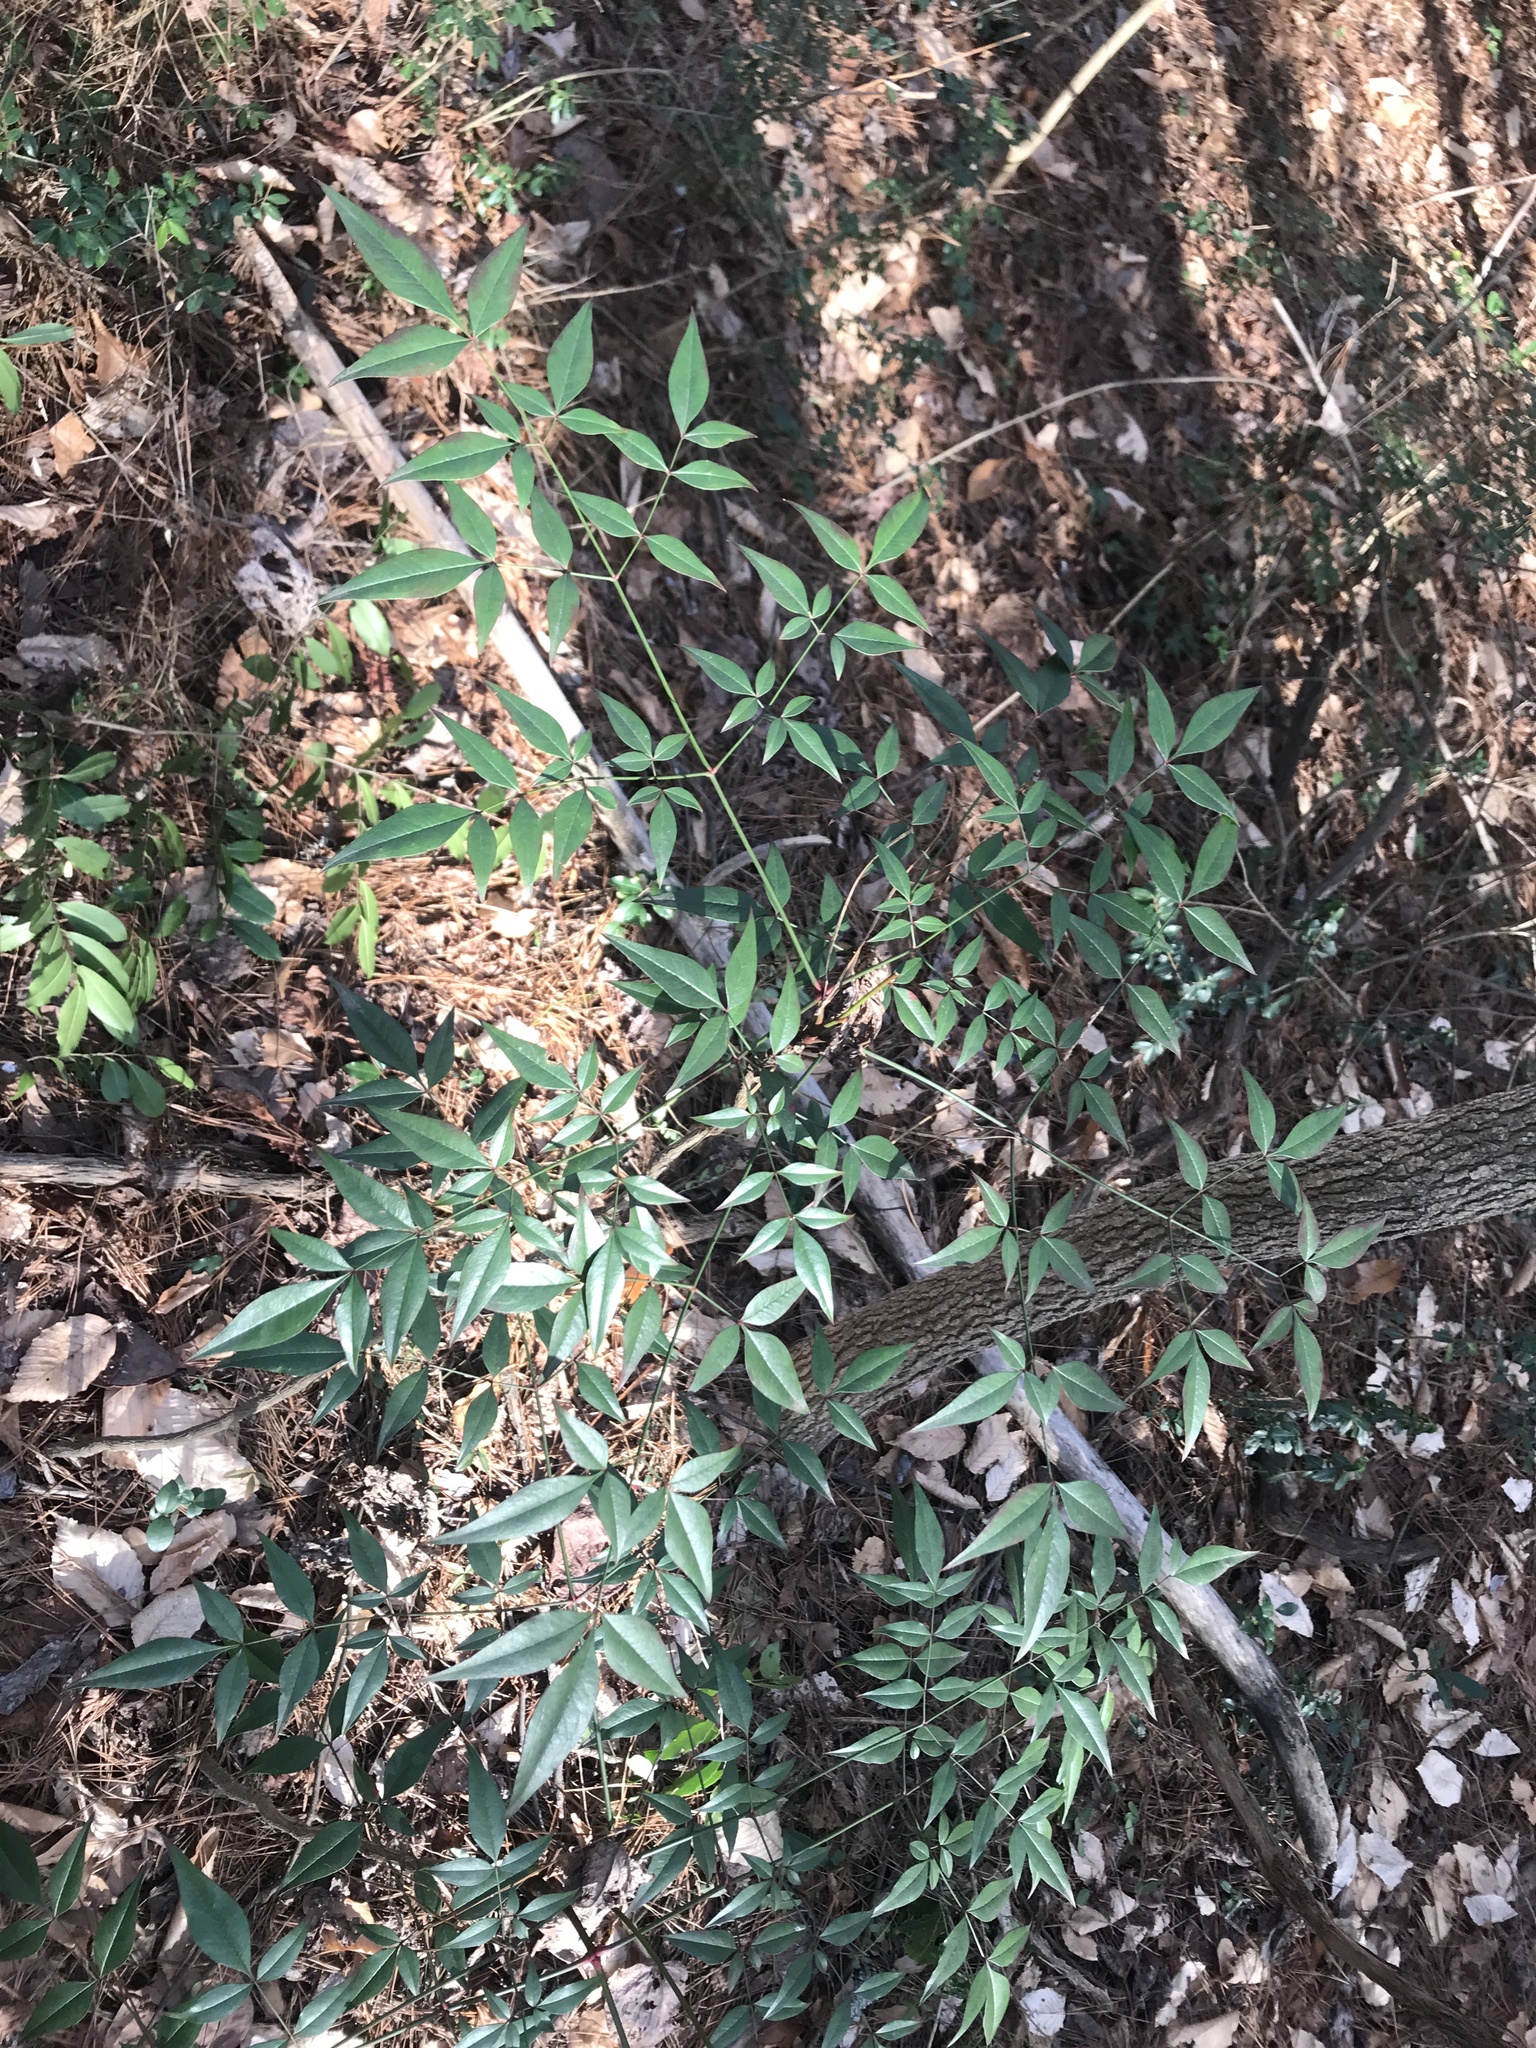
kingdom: Plantae
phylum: Tracheophyta
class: Magnoliopsida
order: Ranunculales
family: Berberidaceae
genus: Nandina
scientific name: Nandina domestica
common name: Sacred bamboo
